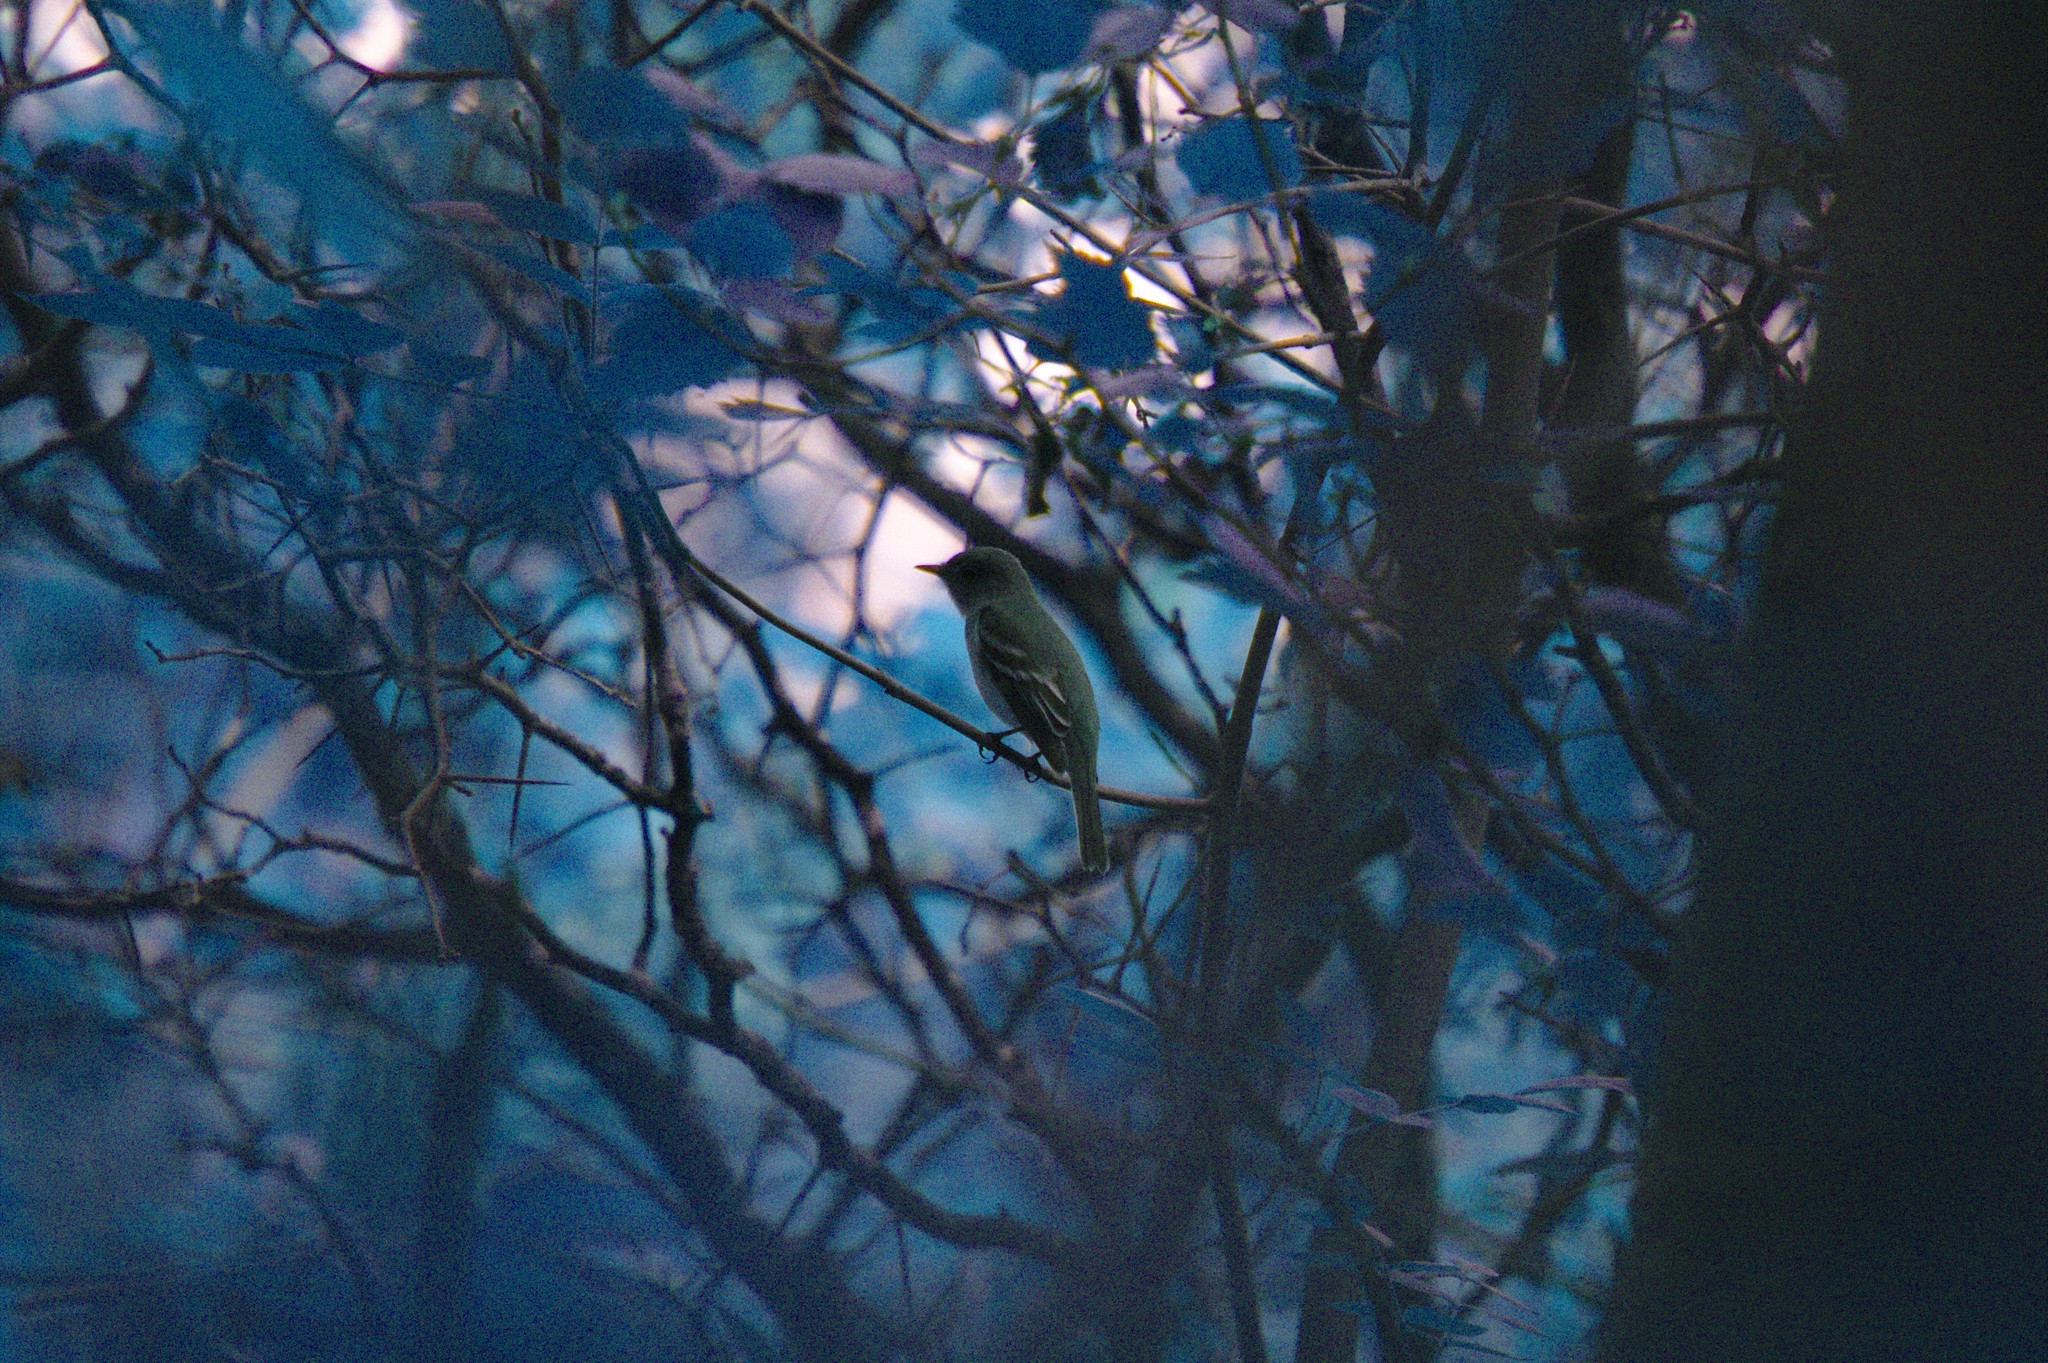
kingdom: Animalia
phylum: Chordata
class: Aves
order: Passeriformes
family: Tyrannidae
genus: Empidonax
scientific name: Empidonax minimus
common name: Least flycatcher
